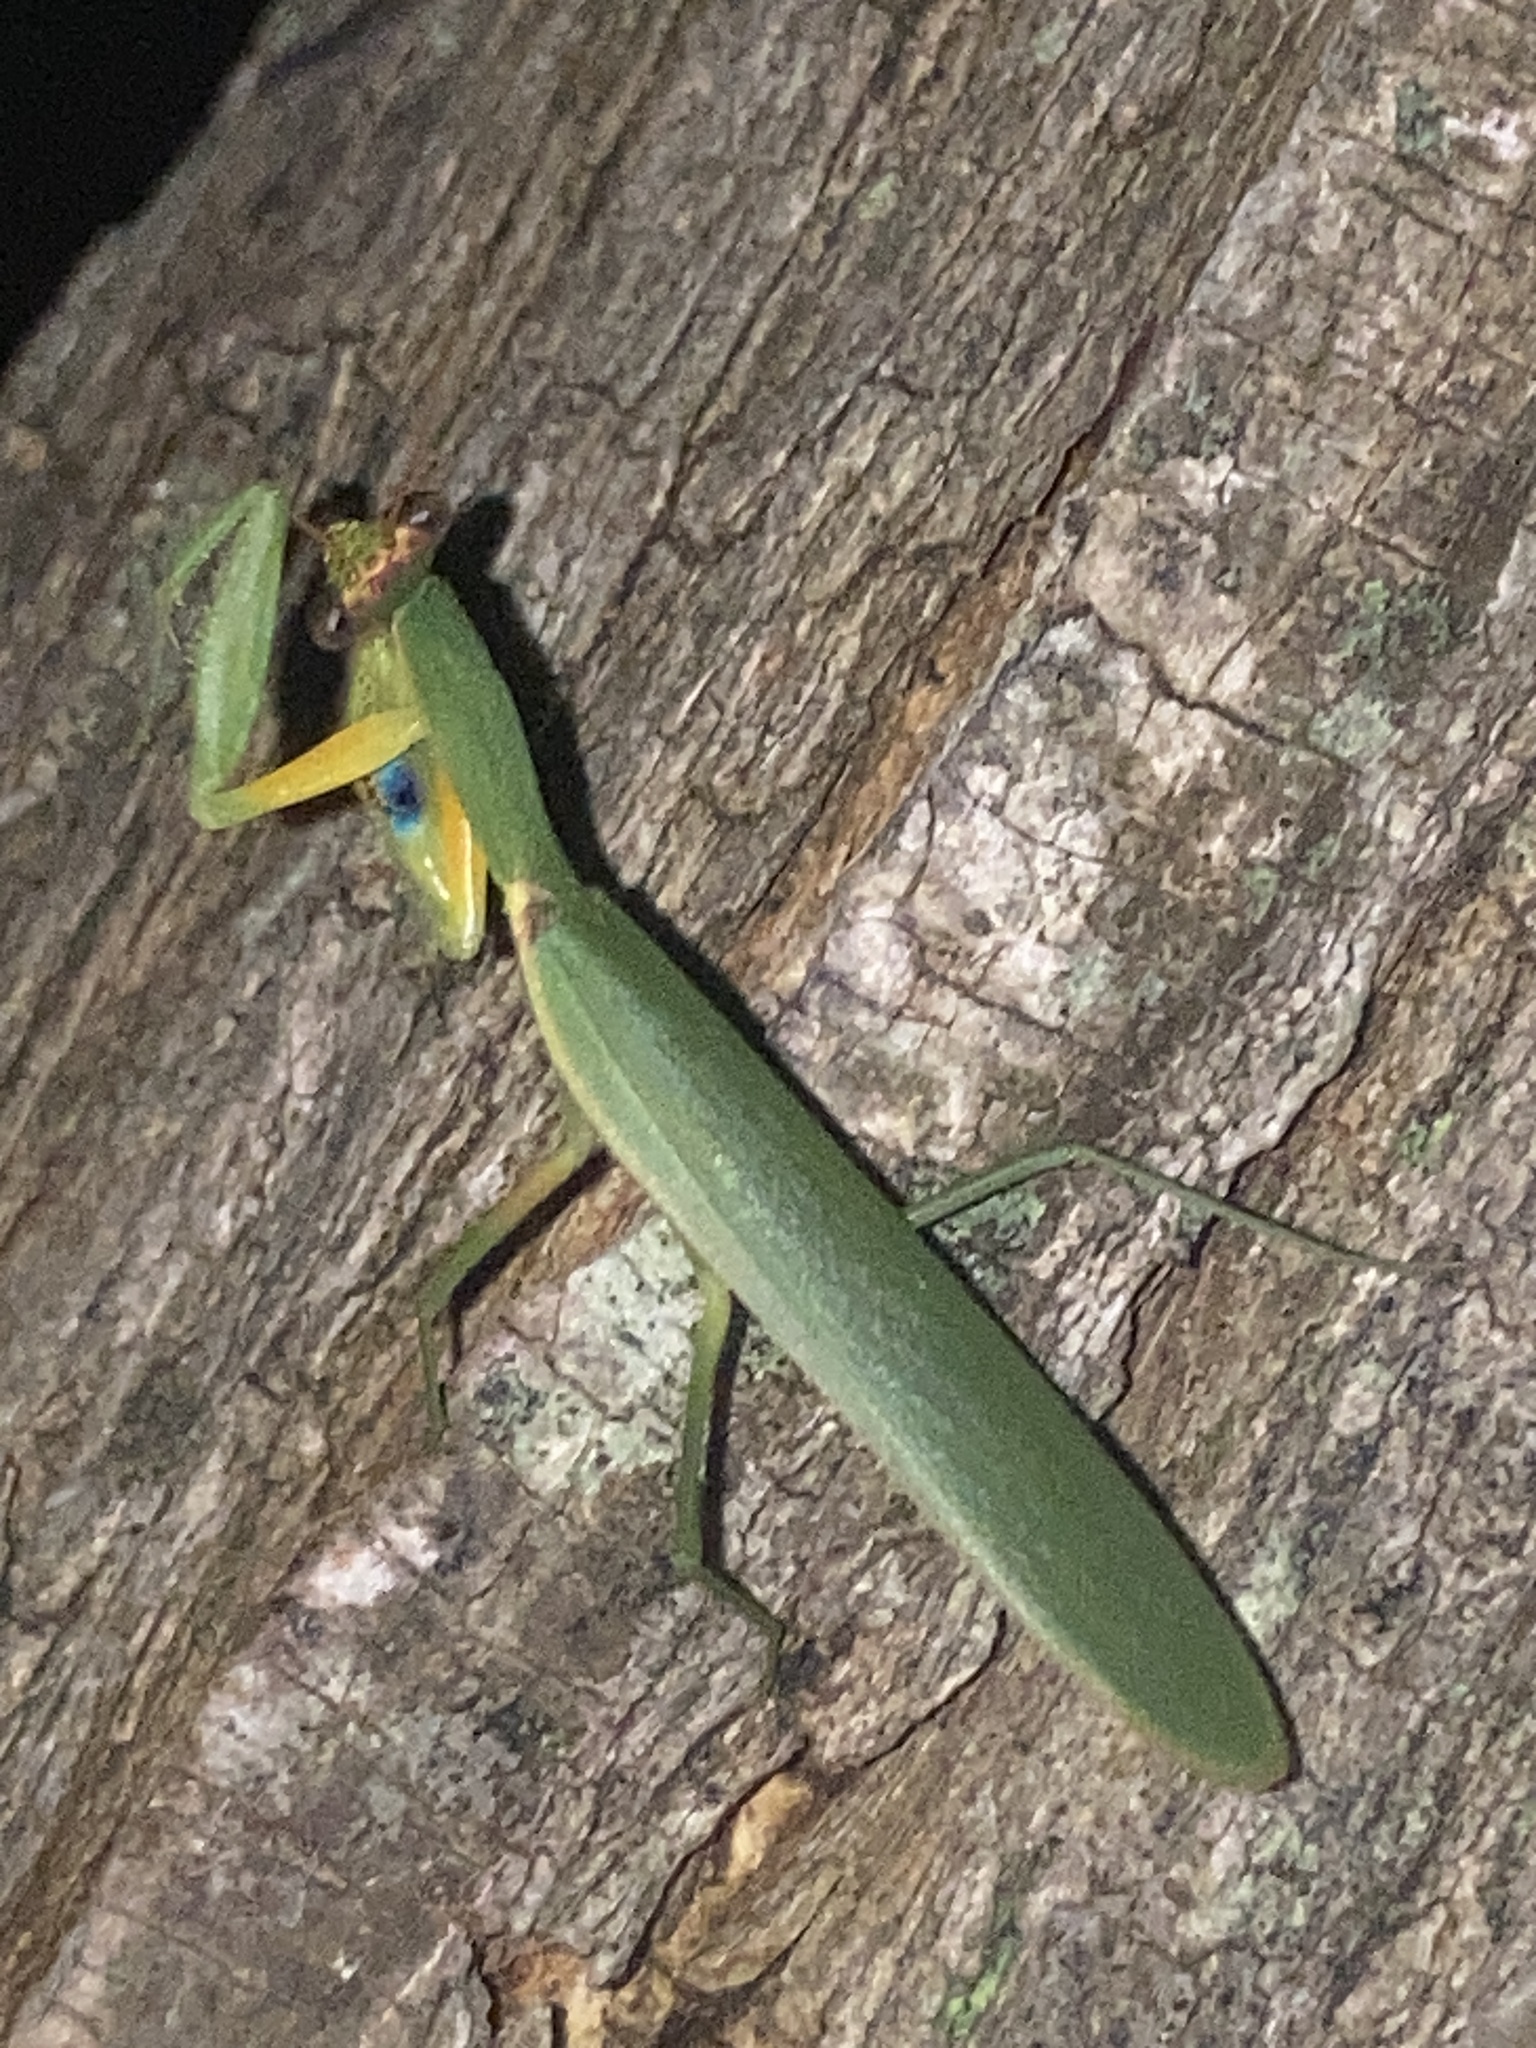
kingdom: Animalia
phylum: Arthropoda
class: Insecta
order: Mantodea
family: Mantidae
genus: Orthodera
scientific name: Orthodera ministralis
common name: Mantis
